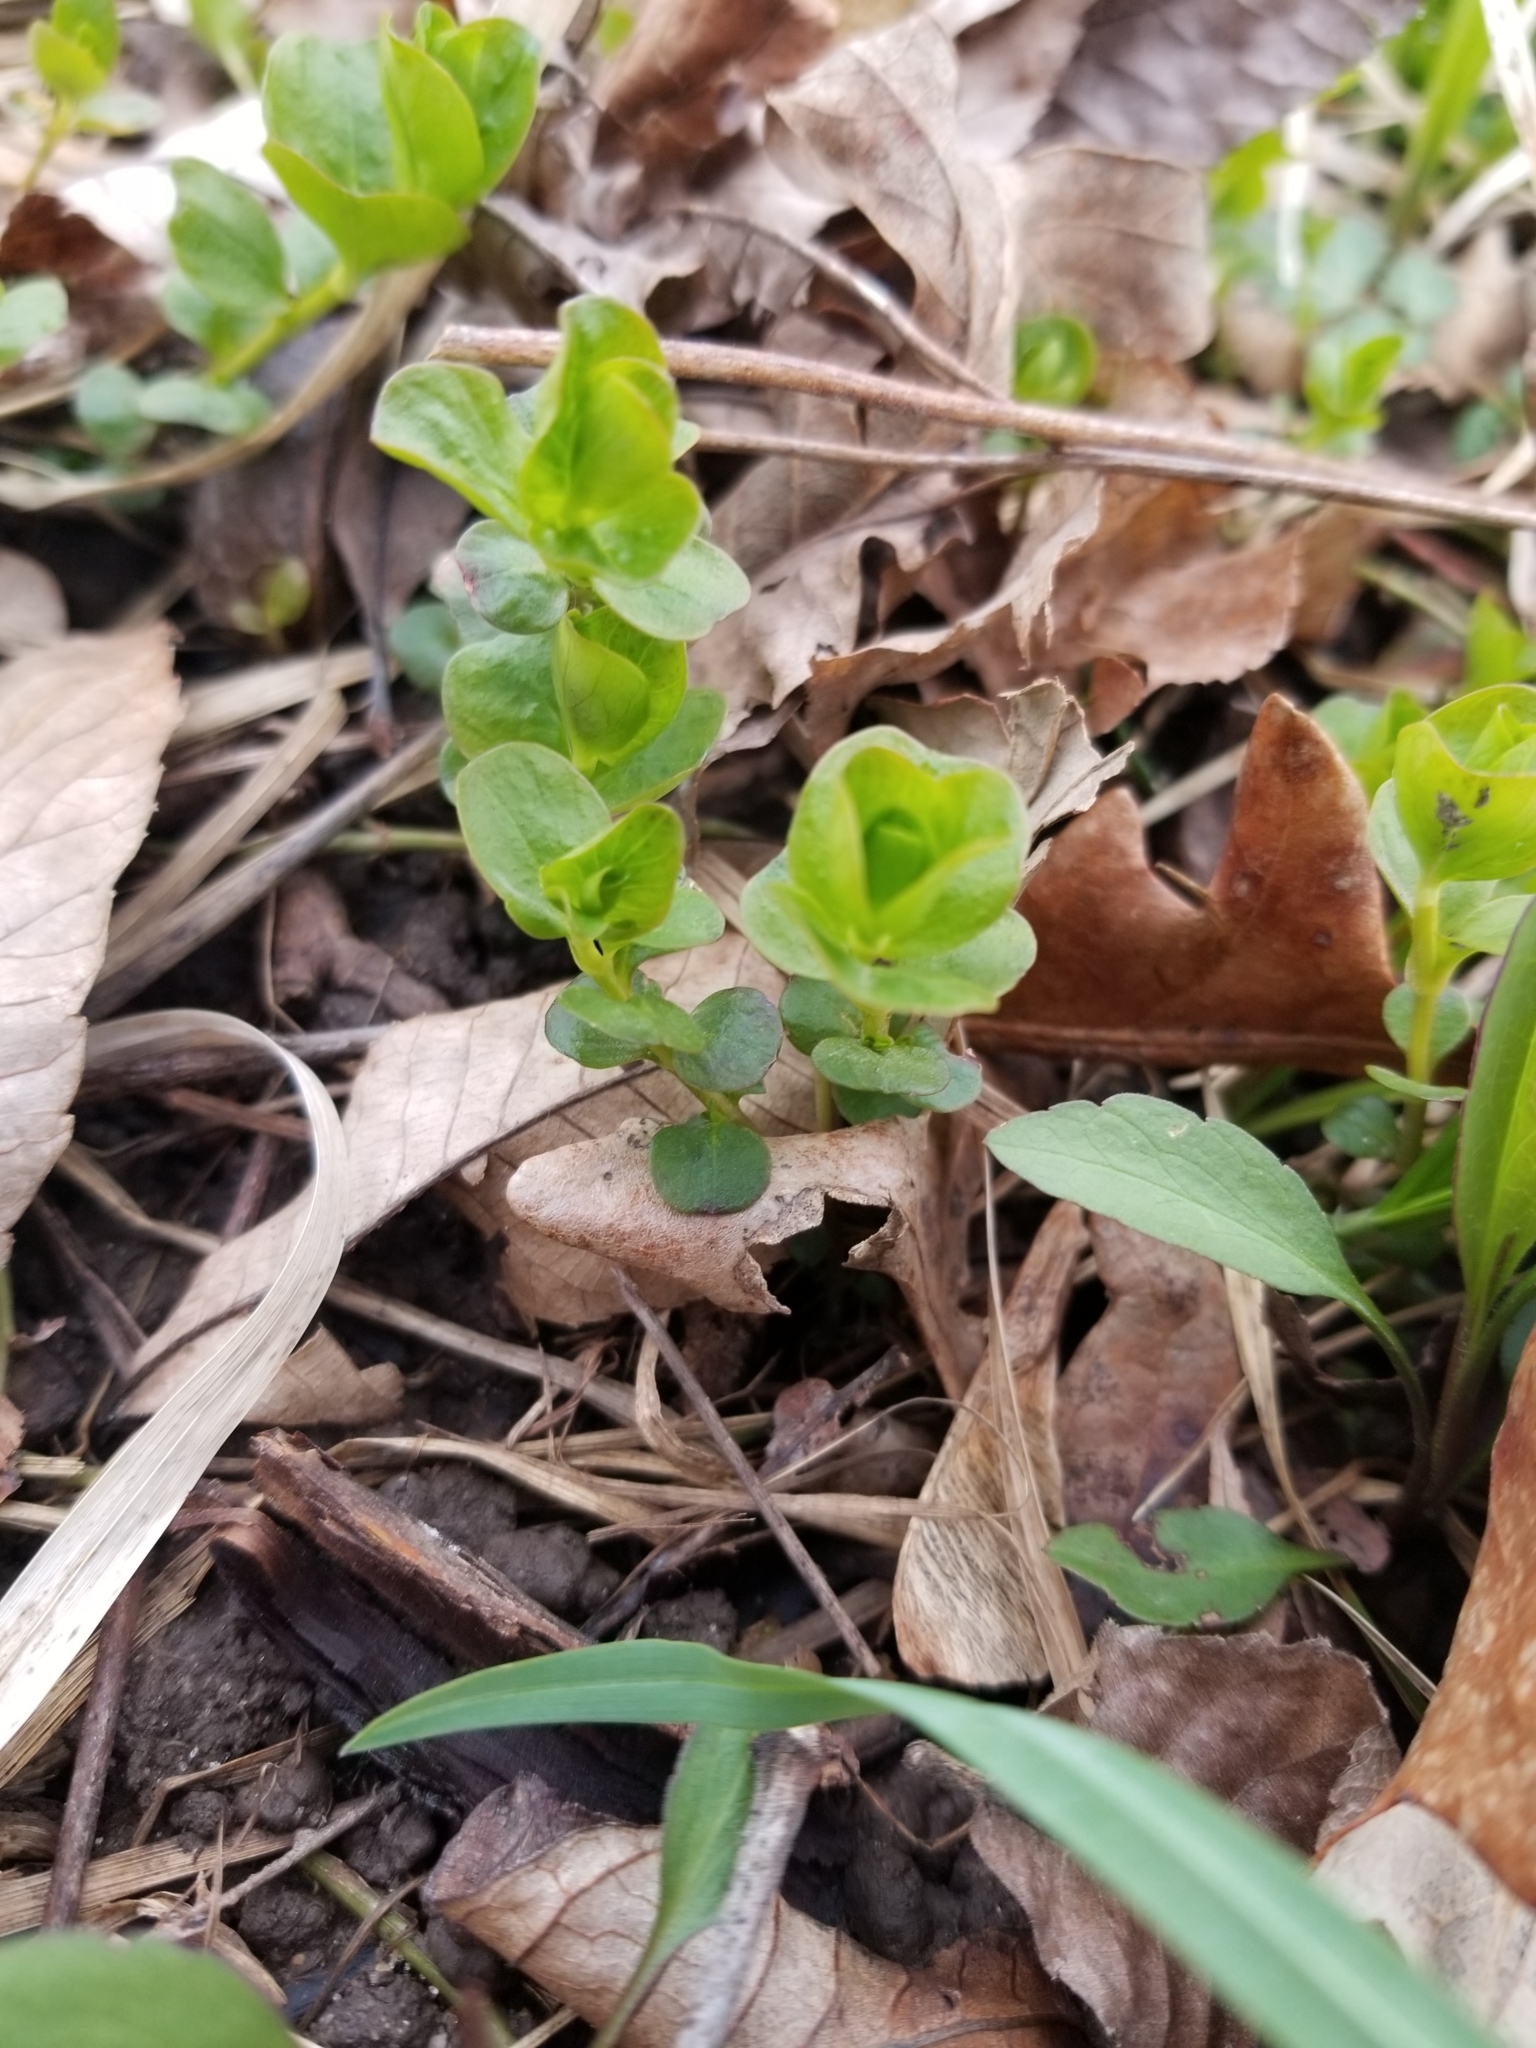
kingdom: Plantae
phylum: Tracheophyta
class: Magnoliopsida
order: Ericales
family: Primulaceae
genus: Lysimachia
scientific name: Lysimachia nummularia
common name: Moneywort
